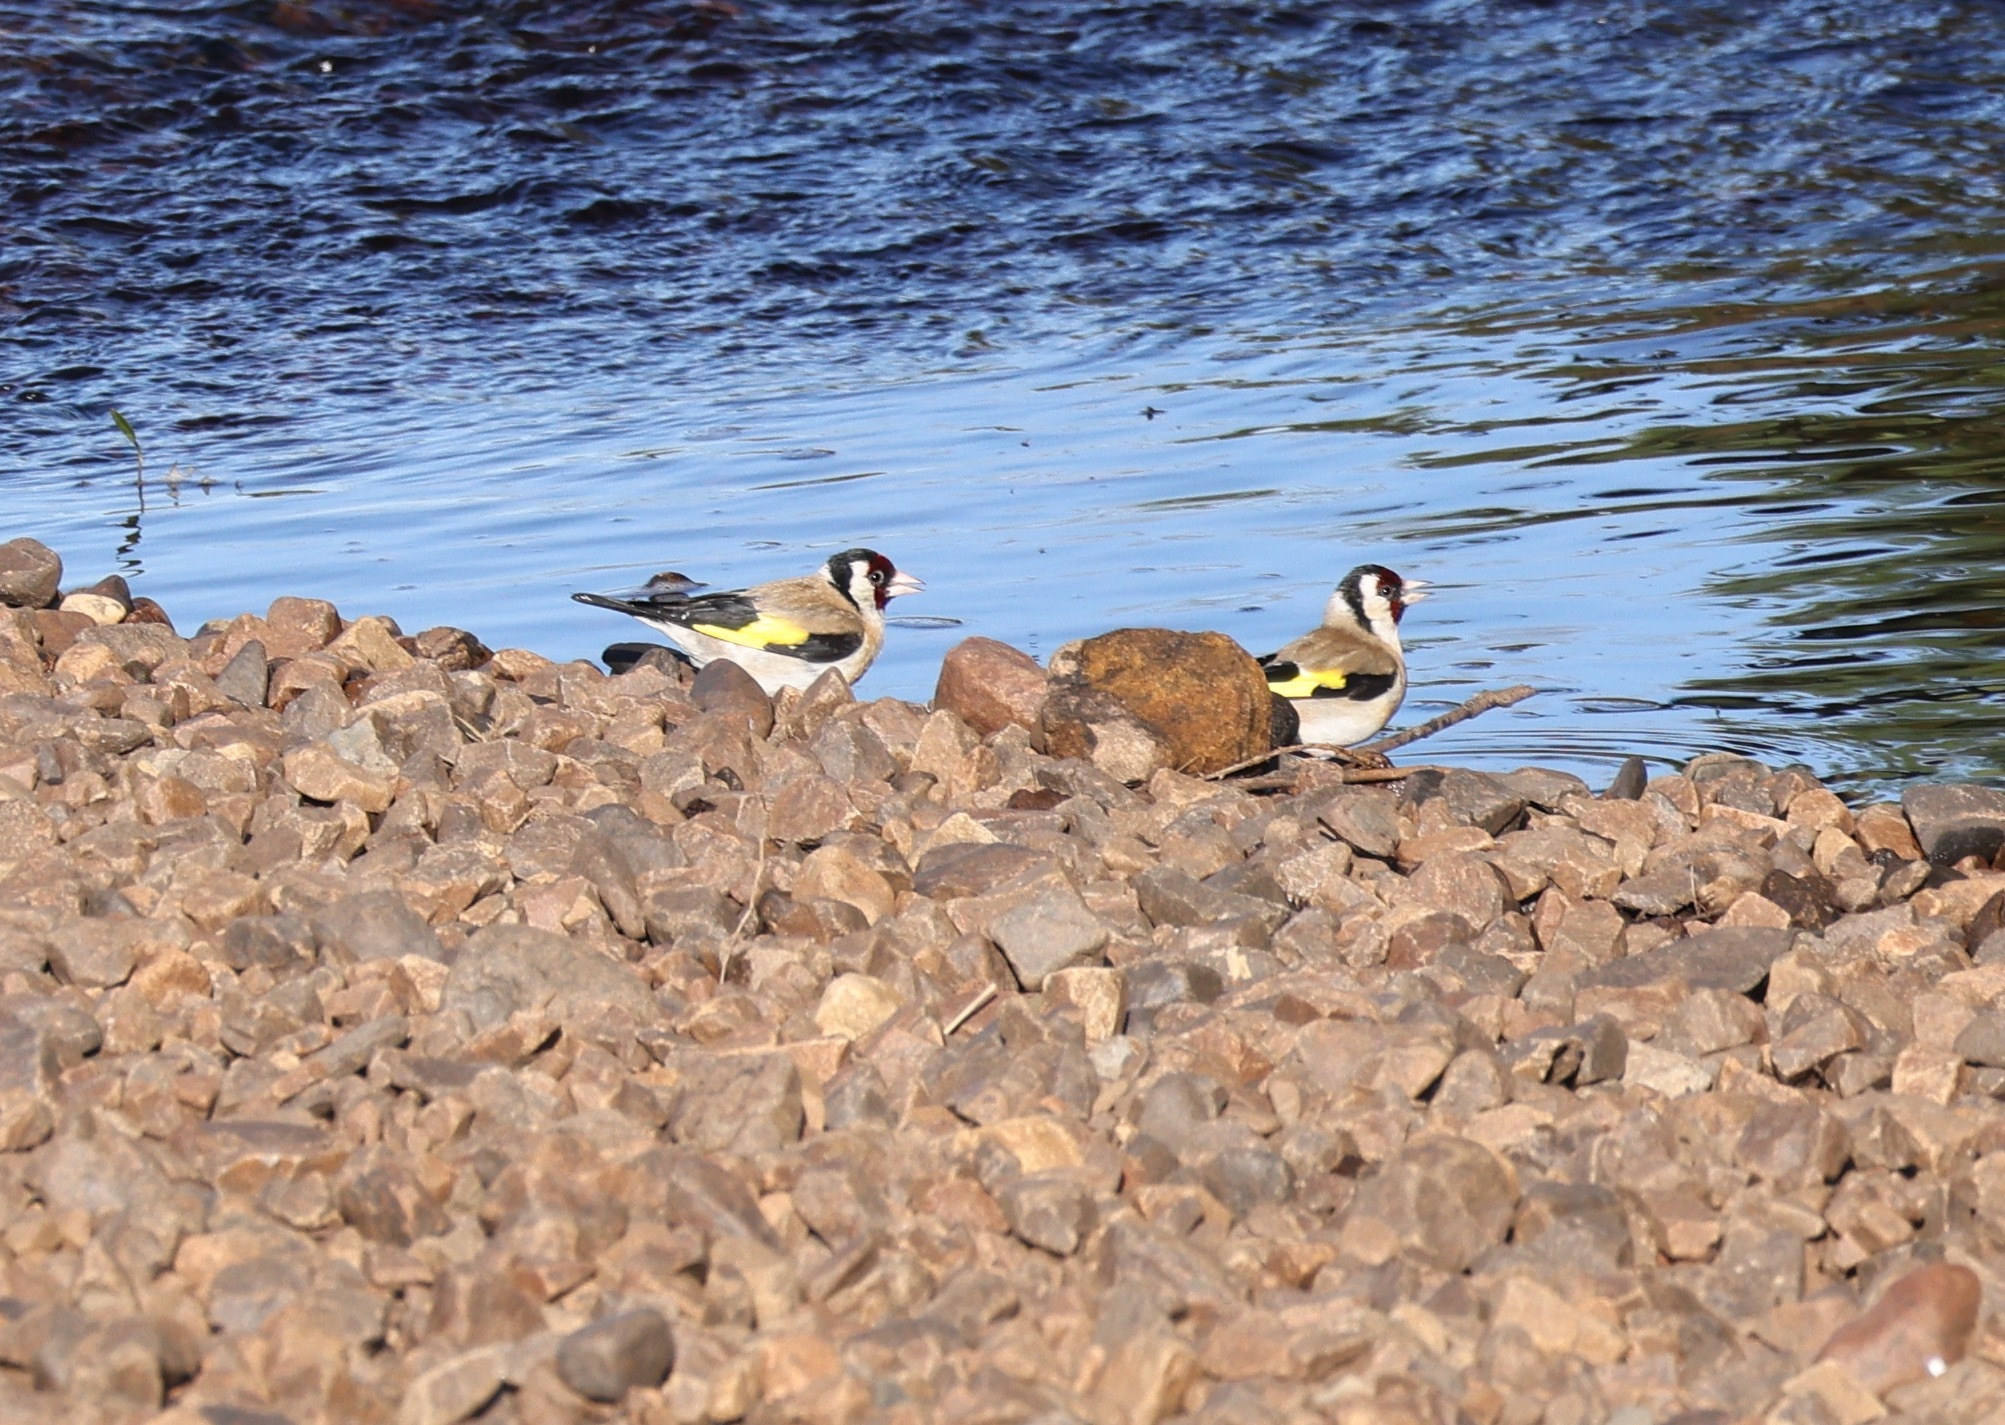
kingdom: Animalia
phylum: Chordata
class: Aves
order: Passeriformes
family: Fringillidae
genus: Carduelis
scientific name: Carduelis carduelis
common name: European goldfinch
